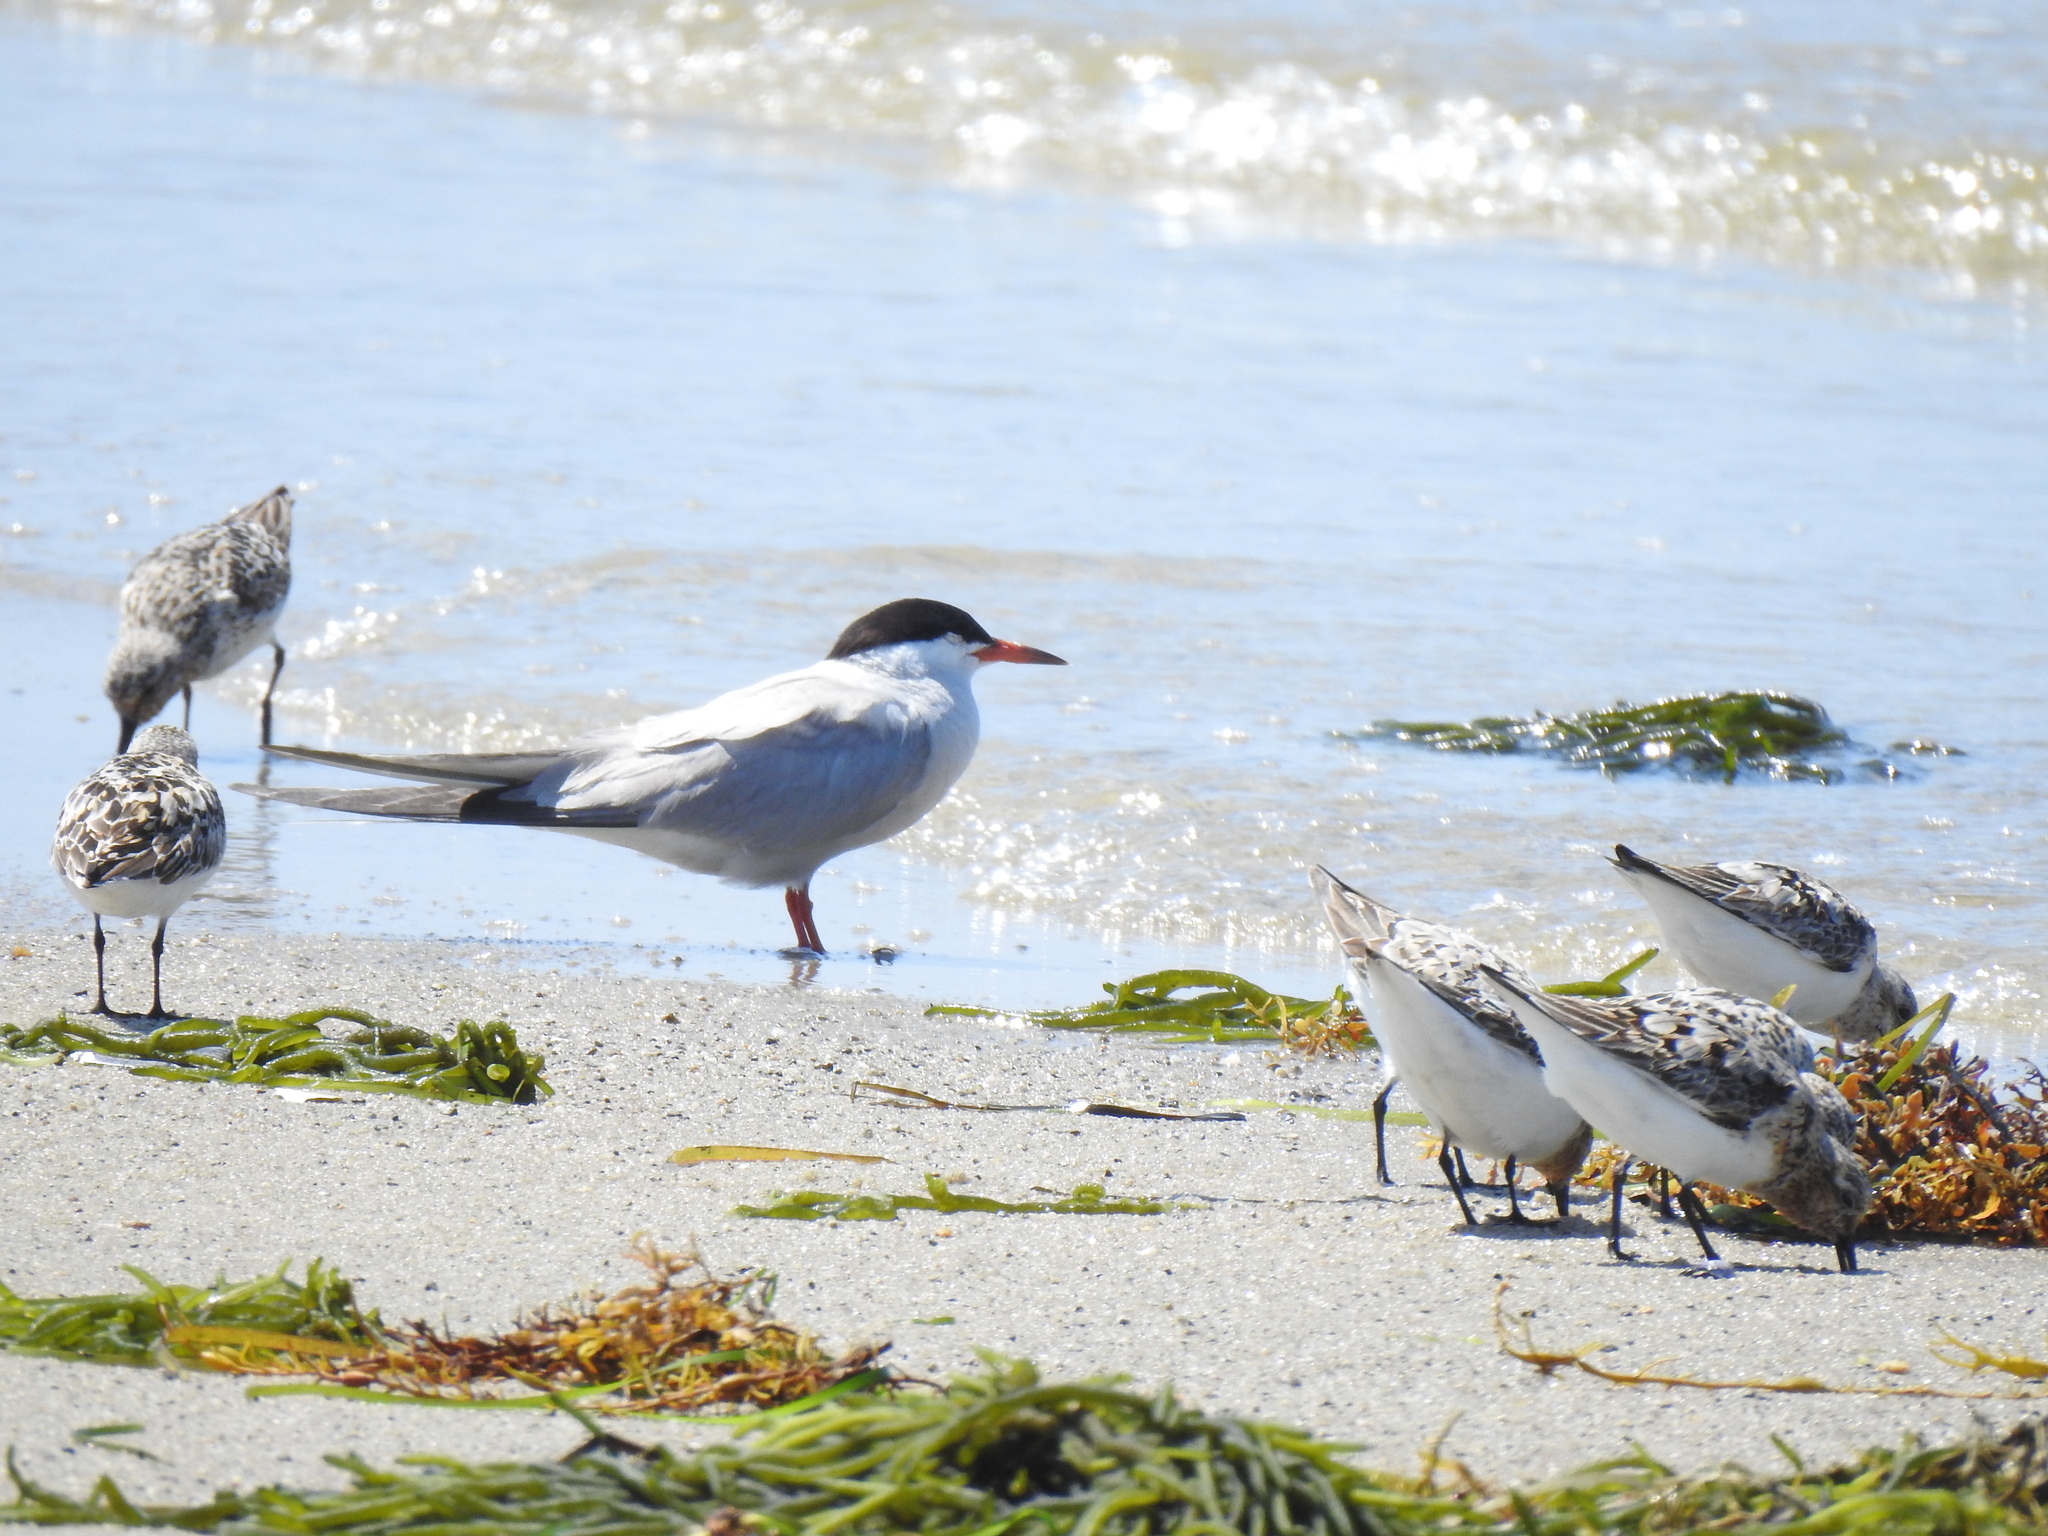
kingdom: Animalia
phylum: Chordata
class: Aves
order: Charadriiformes
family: Scolopacidae
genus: Calidris
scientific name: Calidris alba
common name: Sanderling
